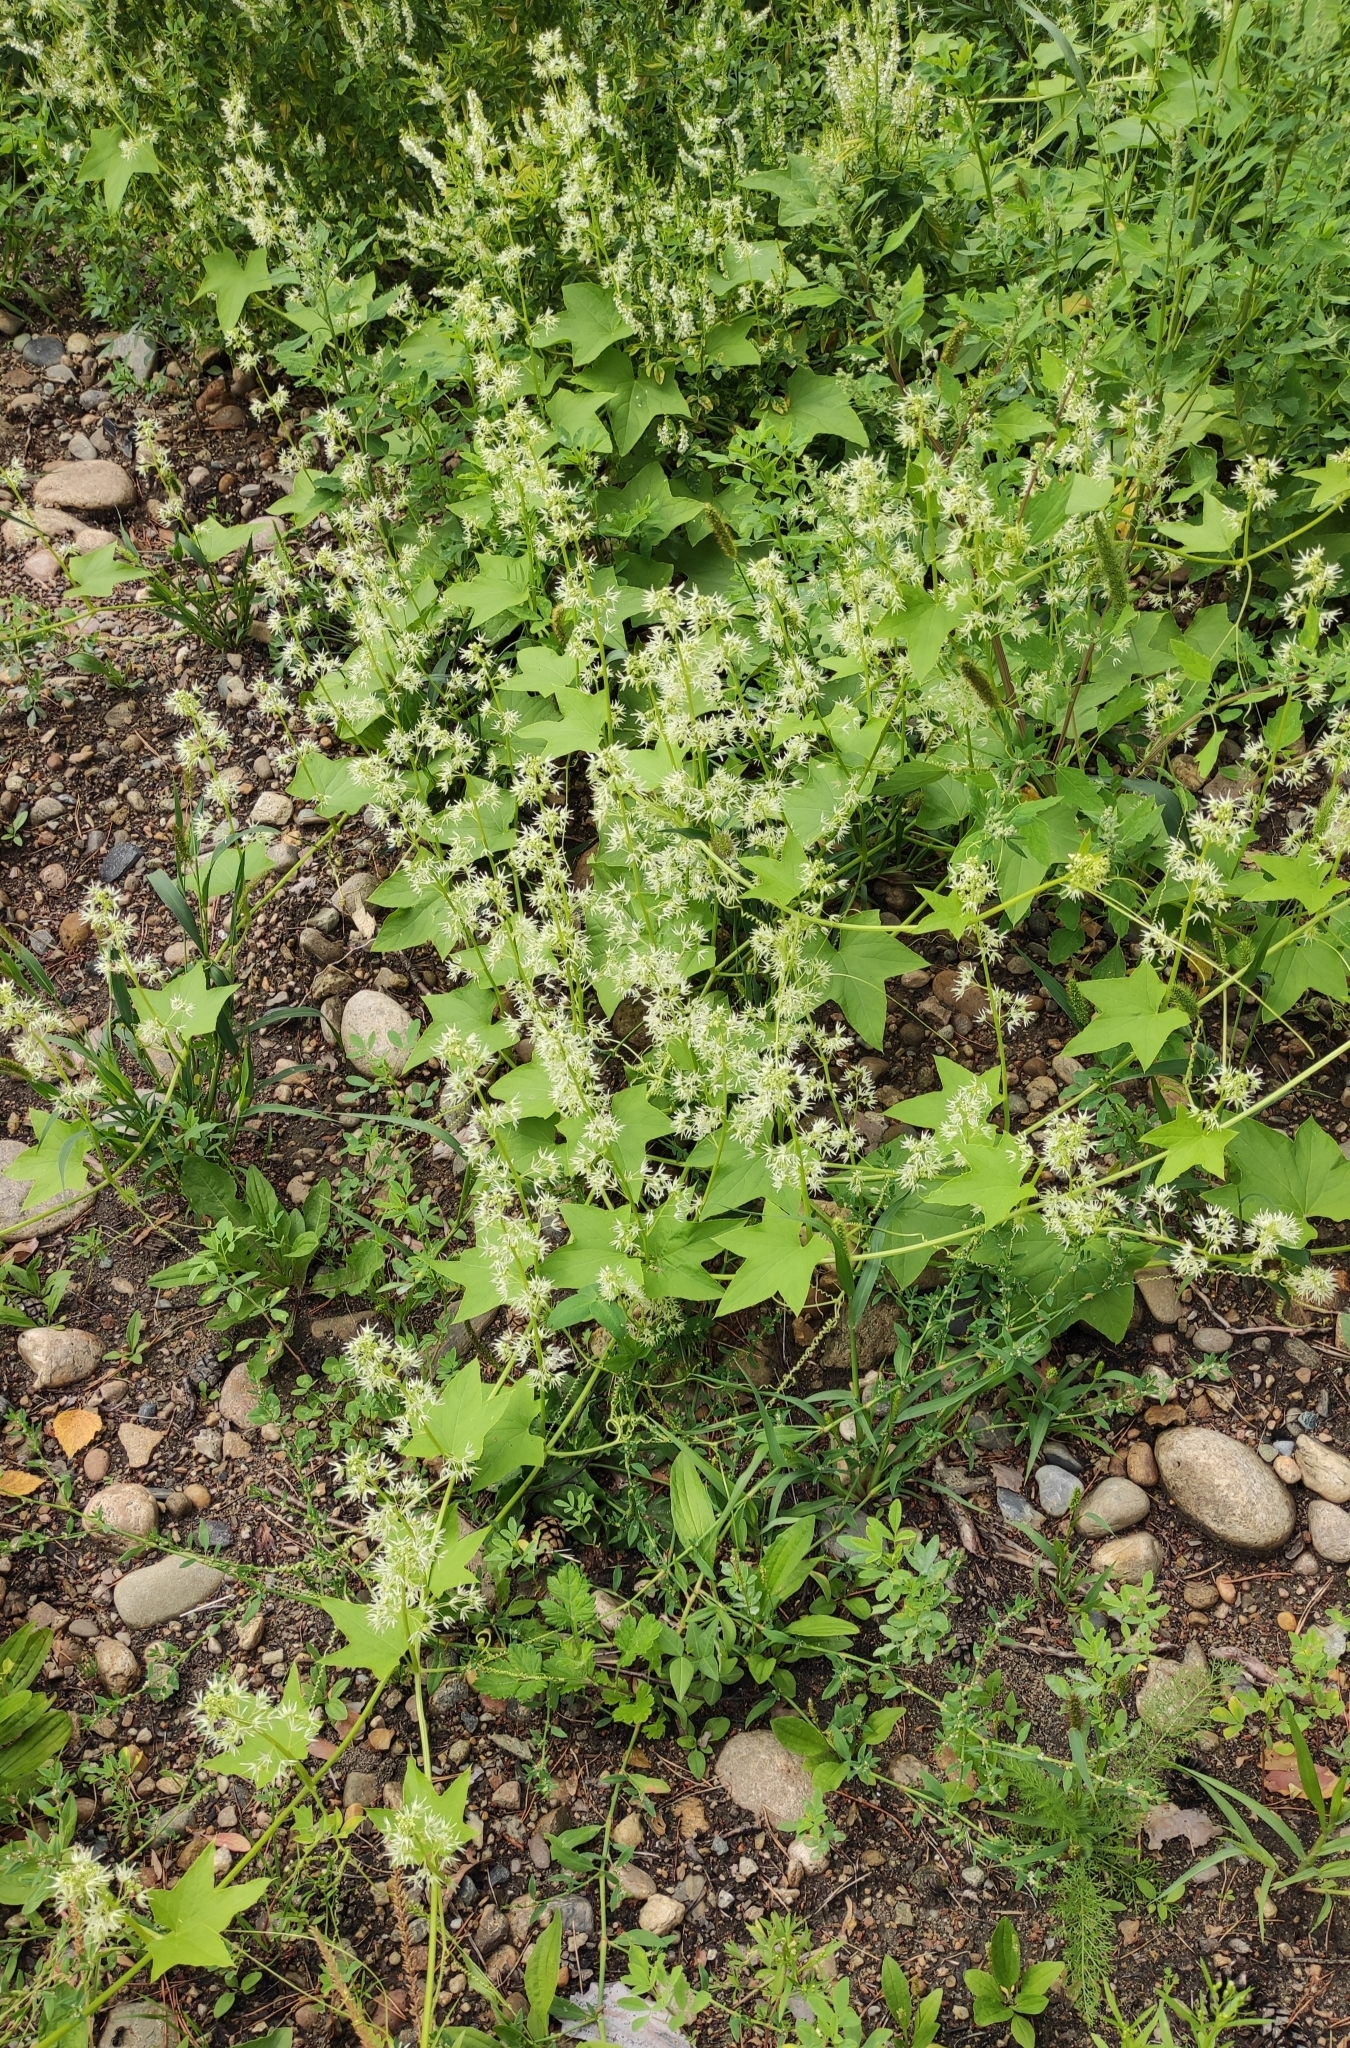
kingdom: Plantae
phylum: Tracheophyta
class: Magnoliopsida
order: Cucurbitales
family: Cucurbitaceae
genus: Echinocystis
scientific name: Echinocystis lobata
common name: Wild cucumber
